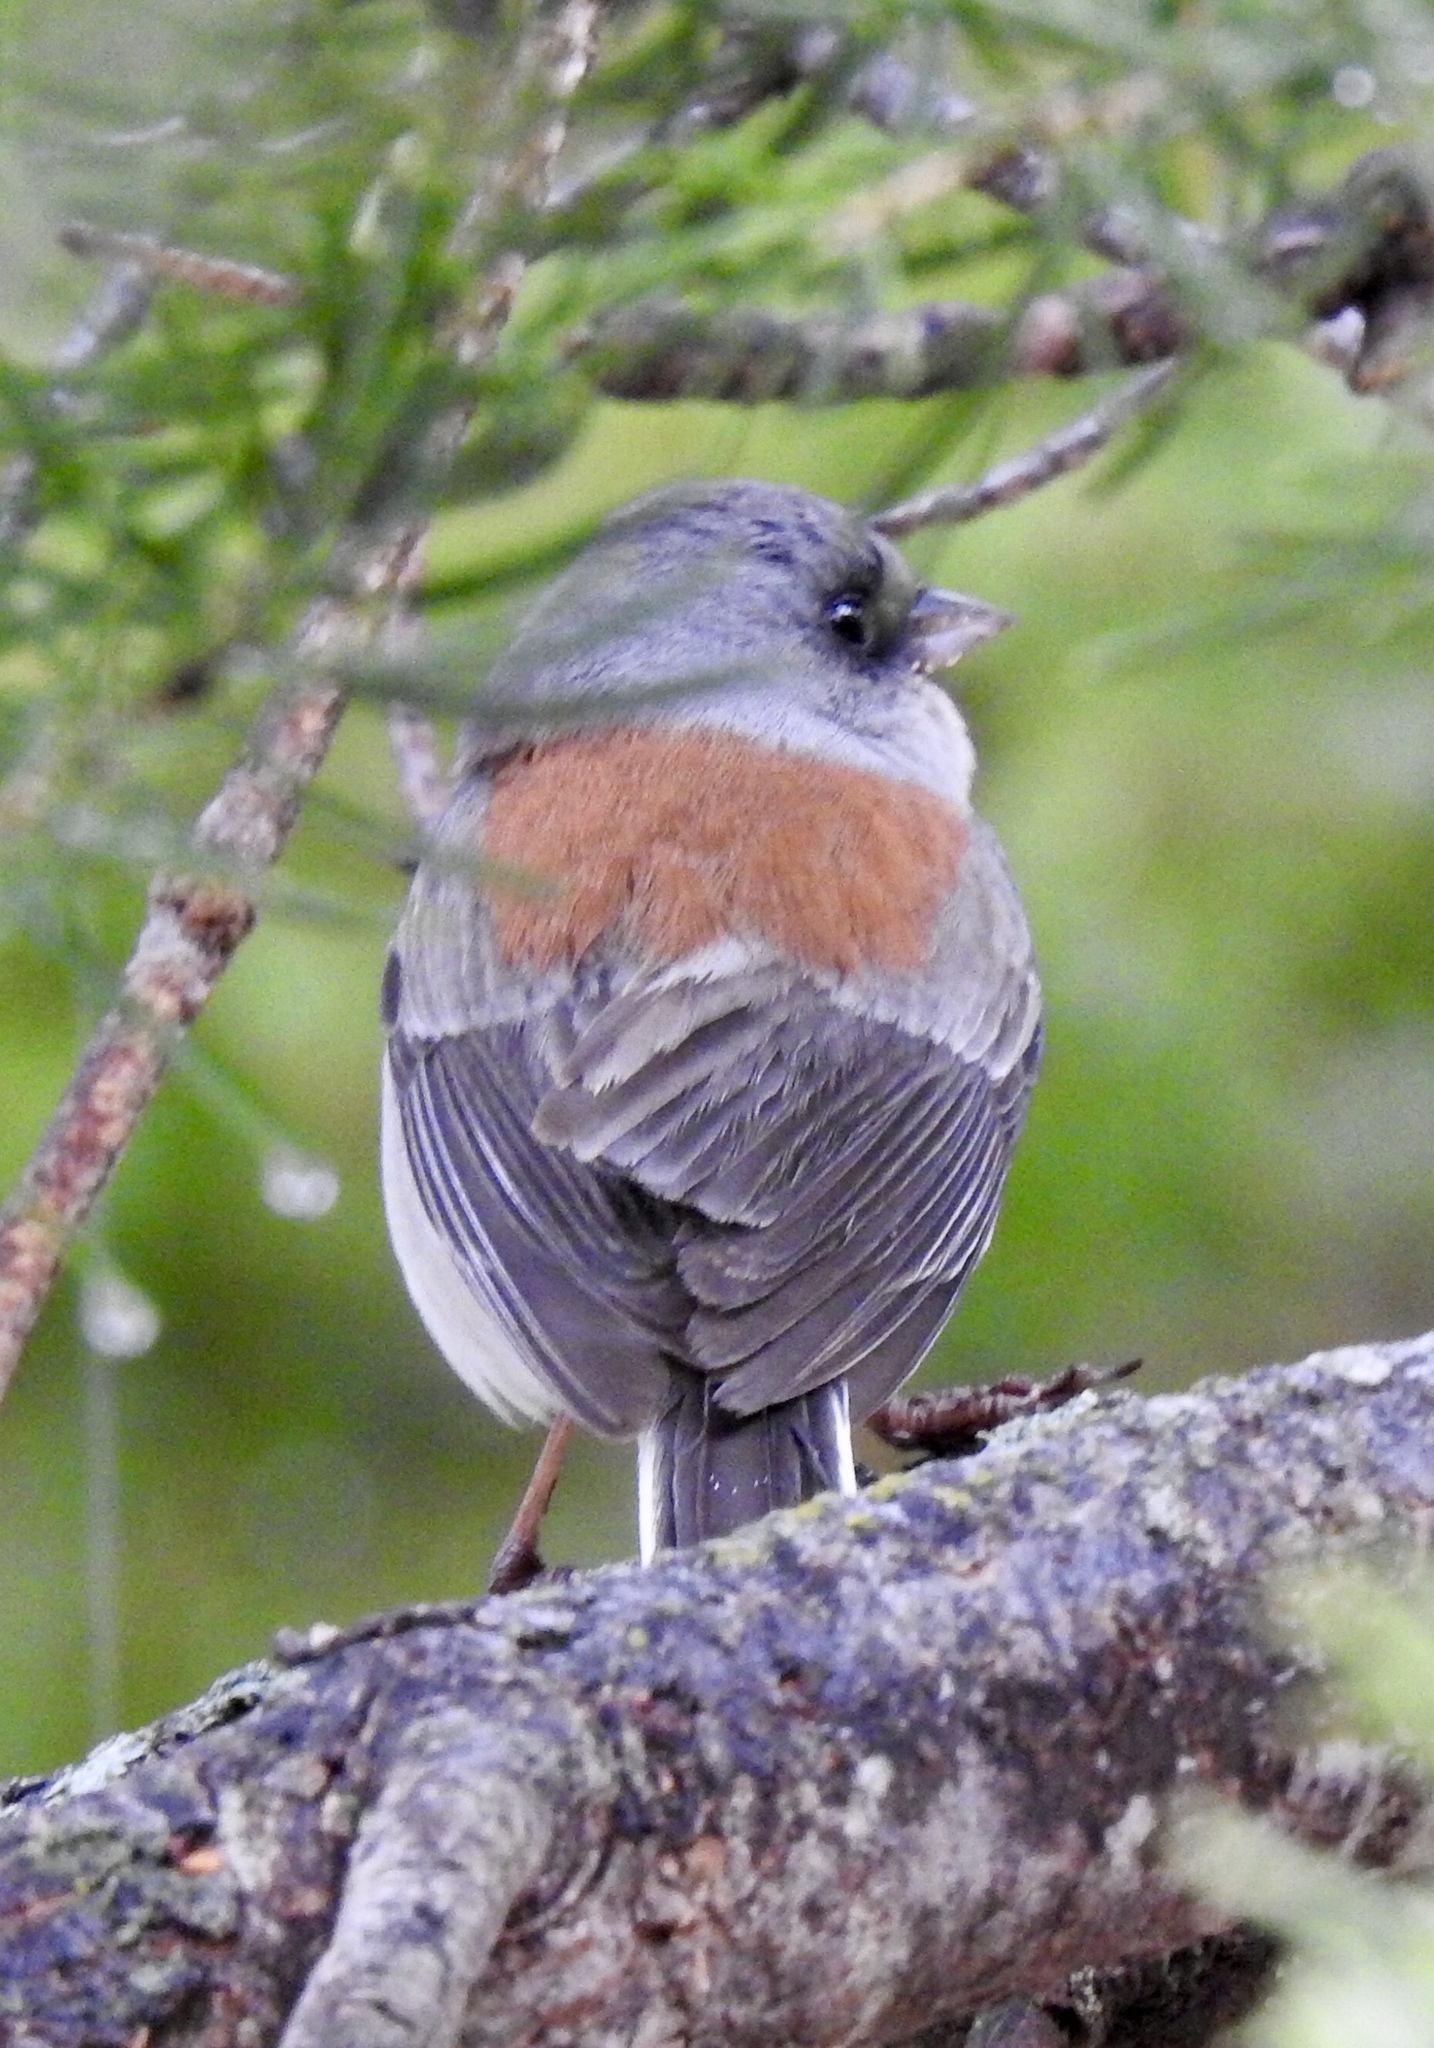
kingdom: Animalia
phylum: Chordata
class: Aves
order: Passeriformes
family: Passerellidae
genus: Junco
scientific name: Junco hyemalis
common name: Dark-eyed junco
